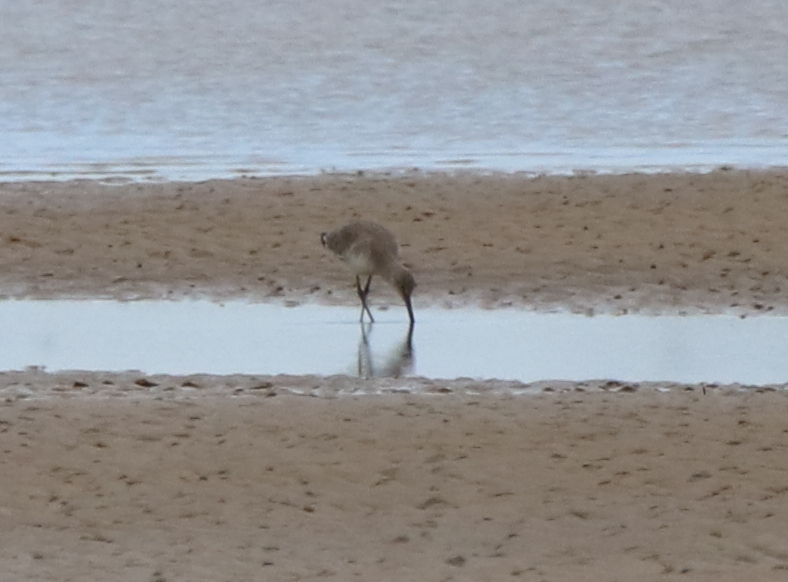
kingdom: Animalia
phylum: Chordata
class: Aves
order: Charadriiformes
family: Scolopacidae
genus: Tringa
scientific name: Tringa semipalmata
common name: Willet
